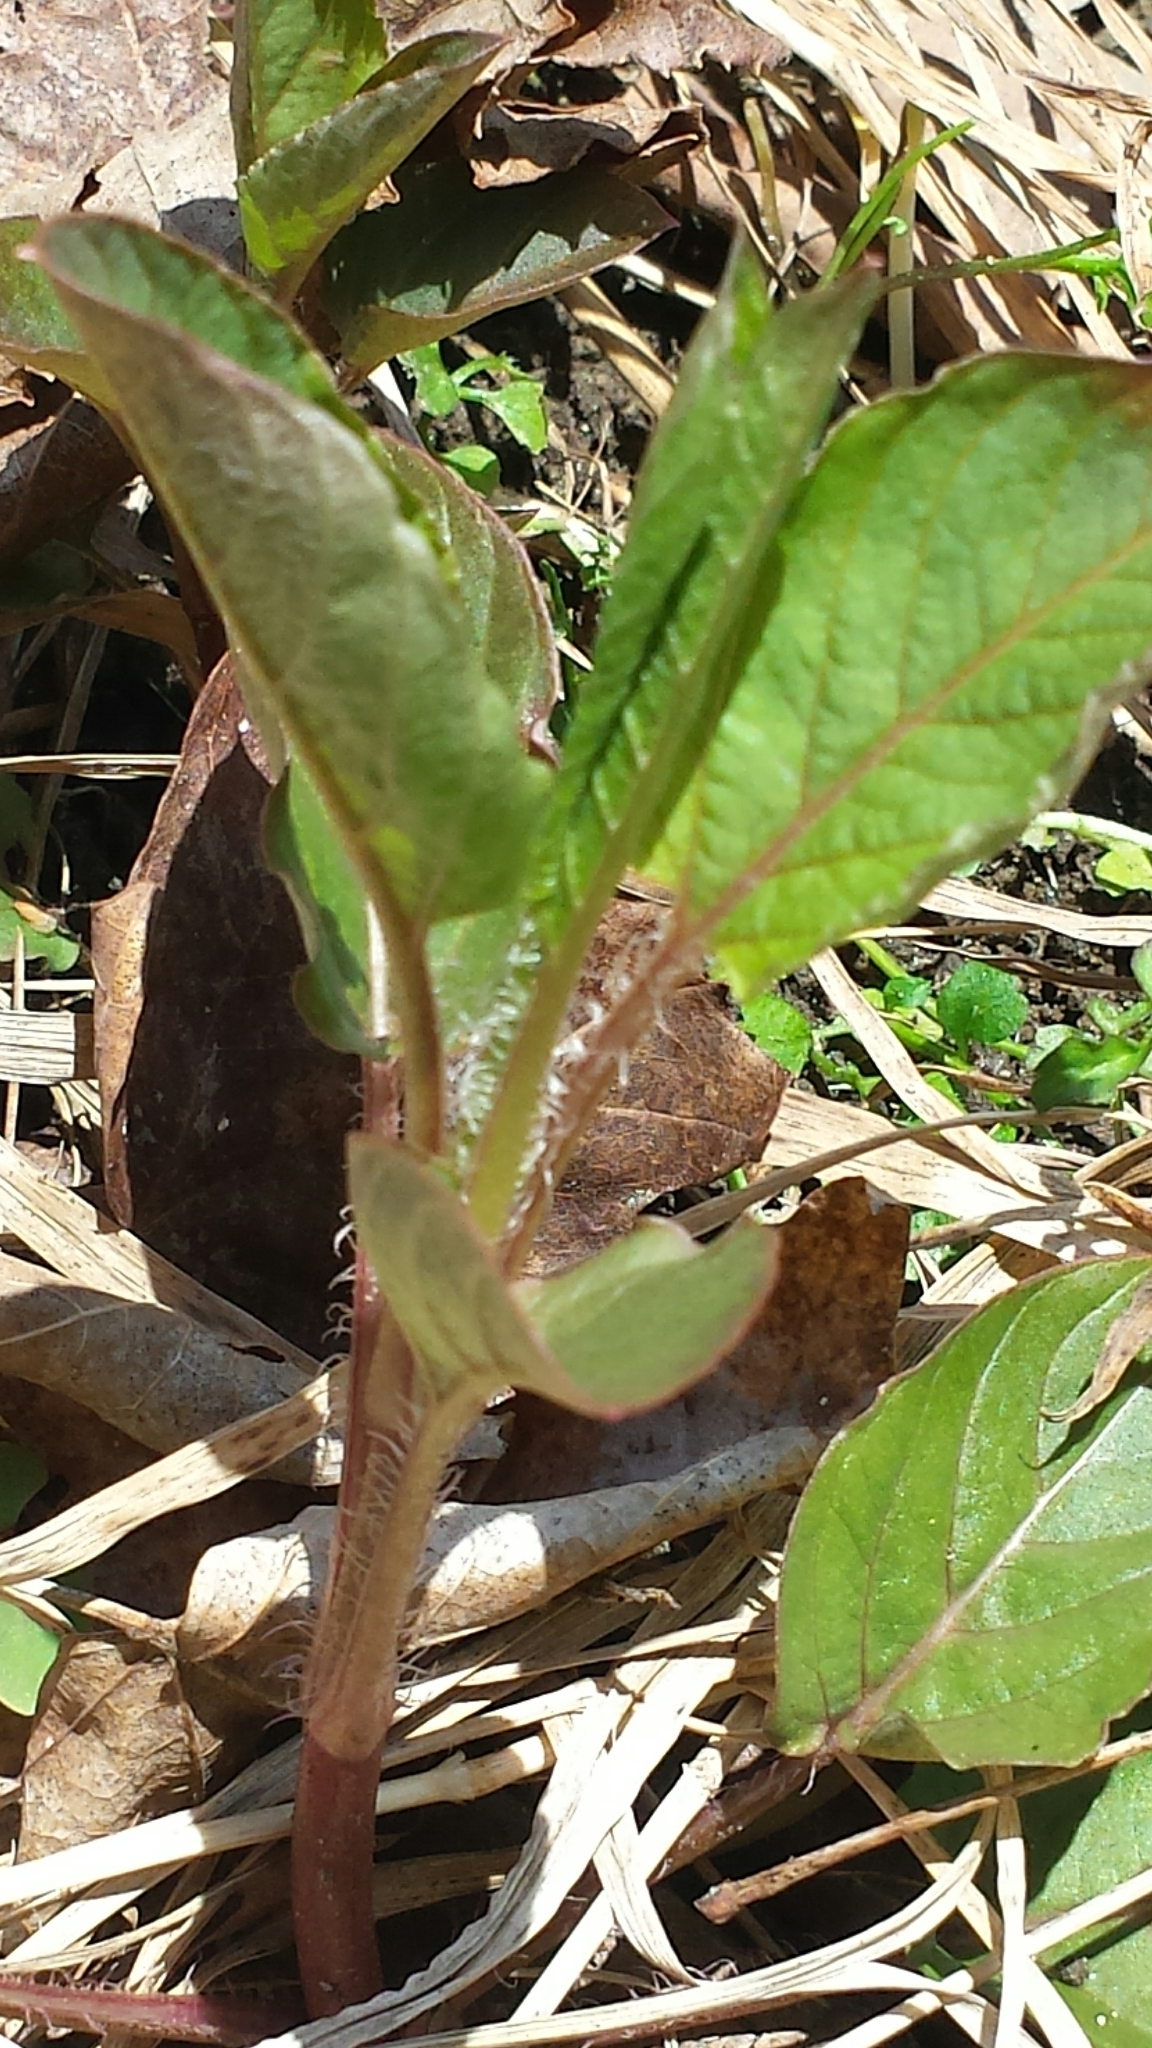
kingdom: Plantae
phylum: Tracheophyta
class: Magnoliopsida
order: Ericales
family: Primulaceae
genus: Lysimachia
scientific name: Lysimachia ciliata
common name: Fringed loosestrife
